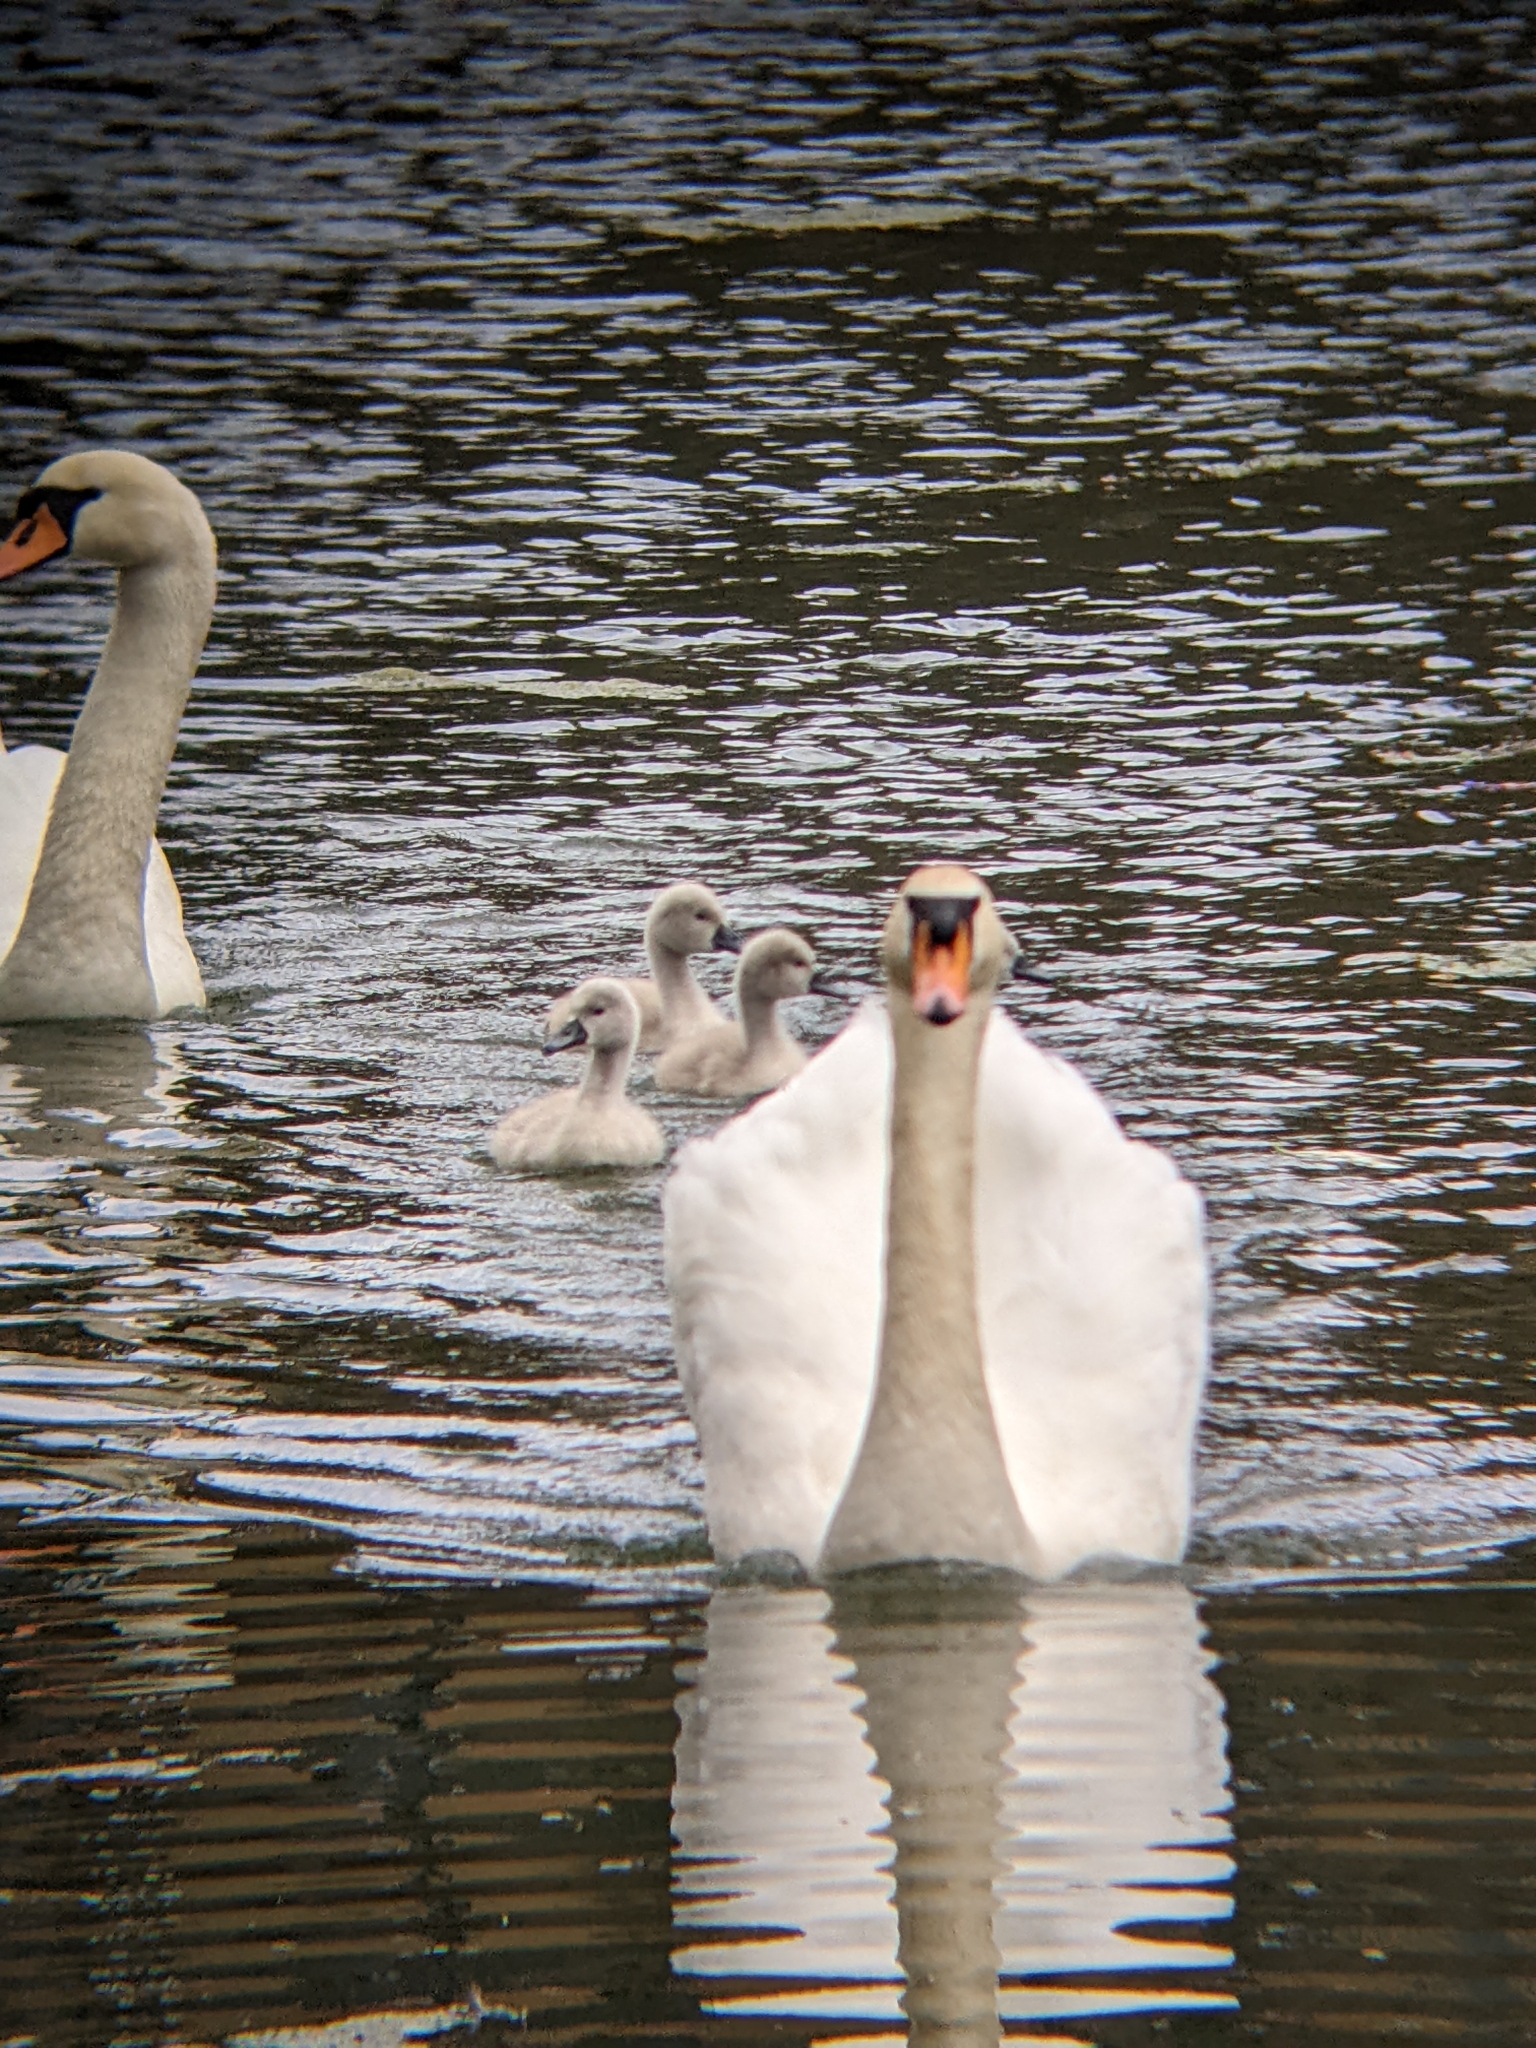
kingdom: Animalia
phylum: Chordata
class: Aves
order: Anseriformes
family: Anatidae
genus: Cygnus
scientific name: Cygnus olor
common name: Mute swan
